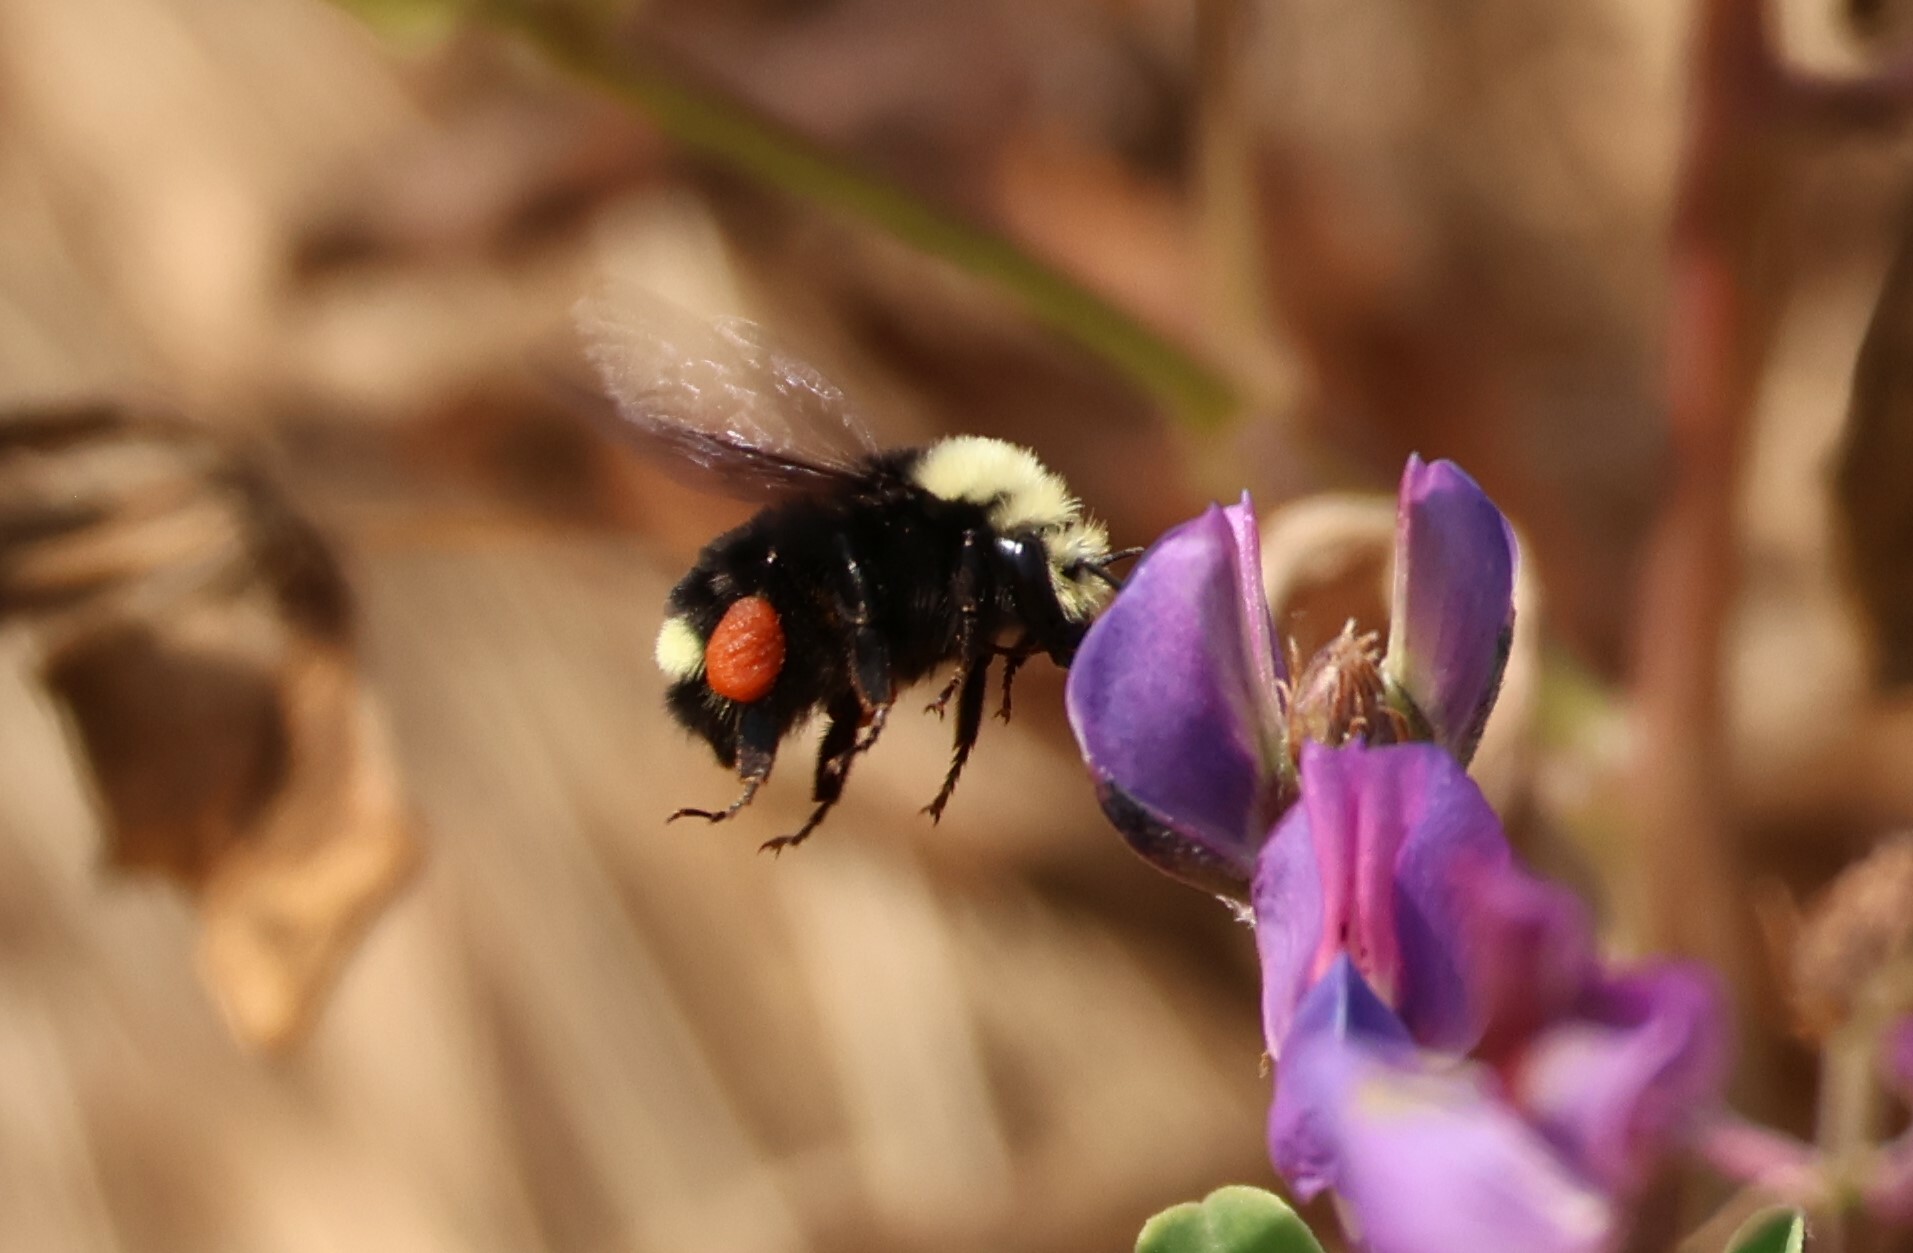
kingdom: Animalia
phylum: Arthropoda
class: Insecta
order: Hymenoptera
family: Apidae
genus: Bombus
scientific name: Bombus vosnesenskii
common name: Vosnesensky bumble bee
